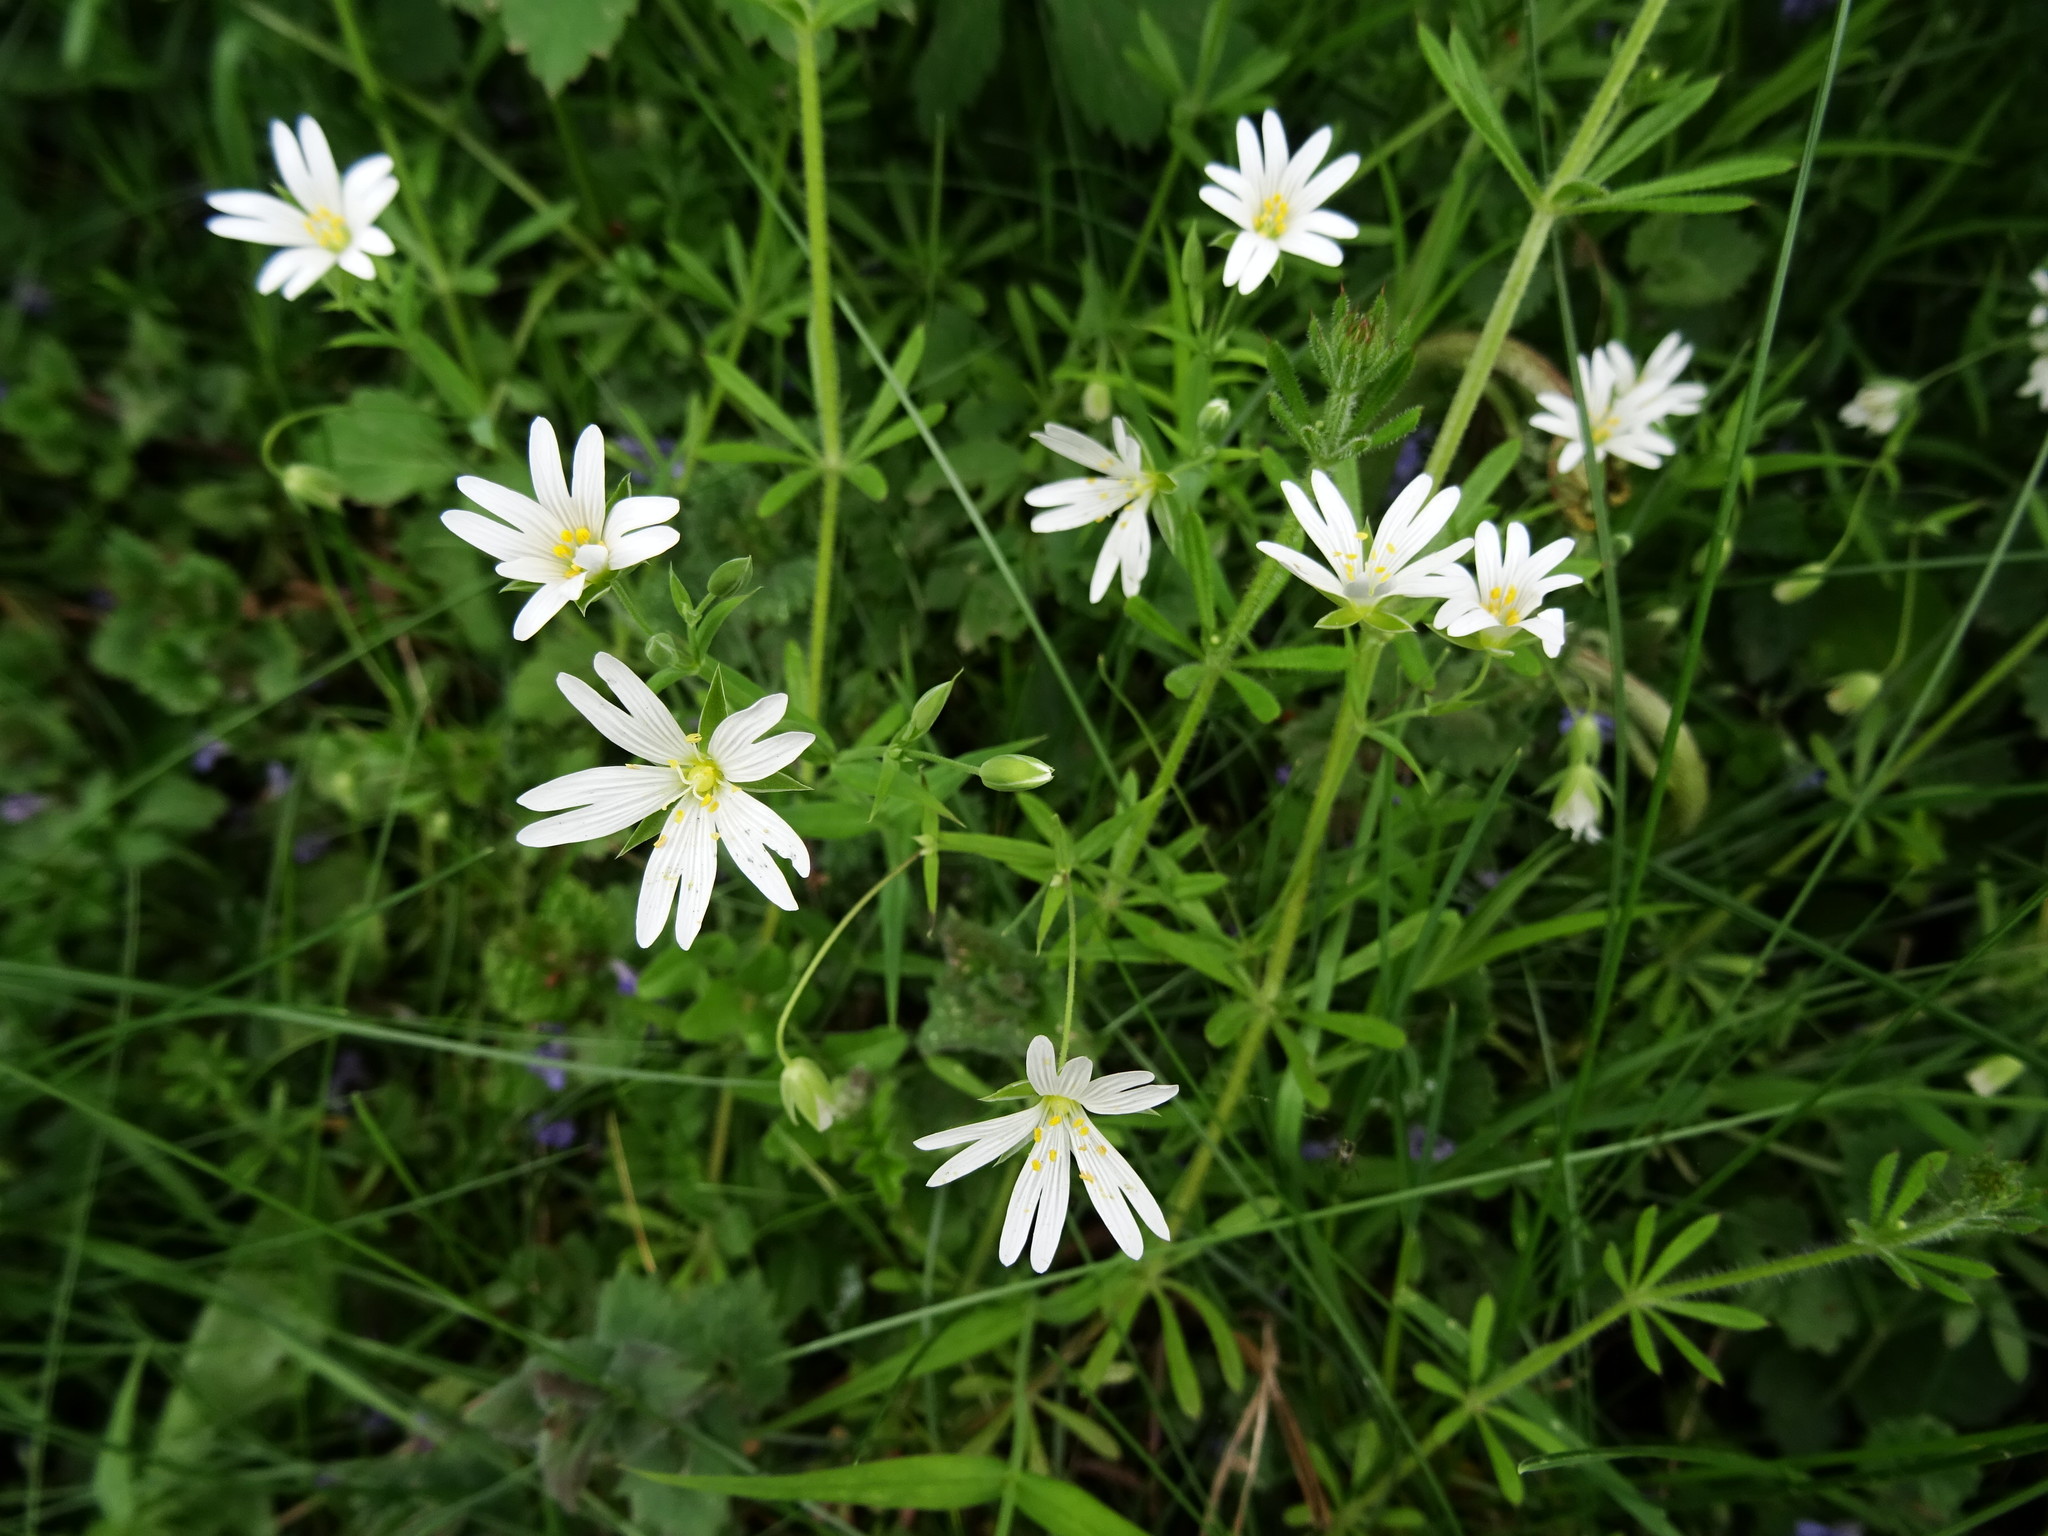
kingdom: Plantae
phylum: Tracheophyta
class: Magnoliopsida
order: Caryophyllales
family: Caryophyllaceae
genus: Rabelera
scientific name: Rabelera holostea
